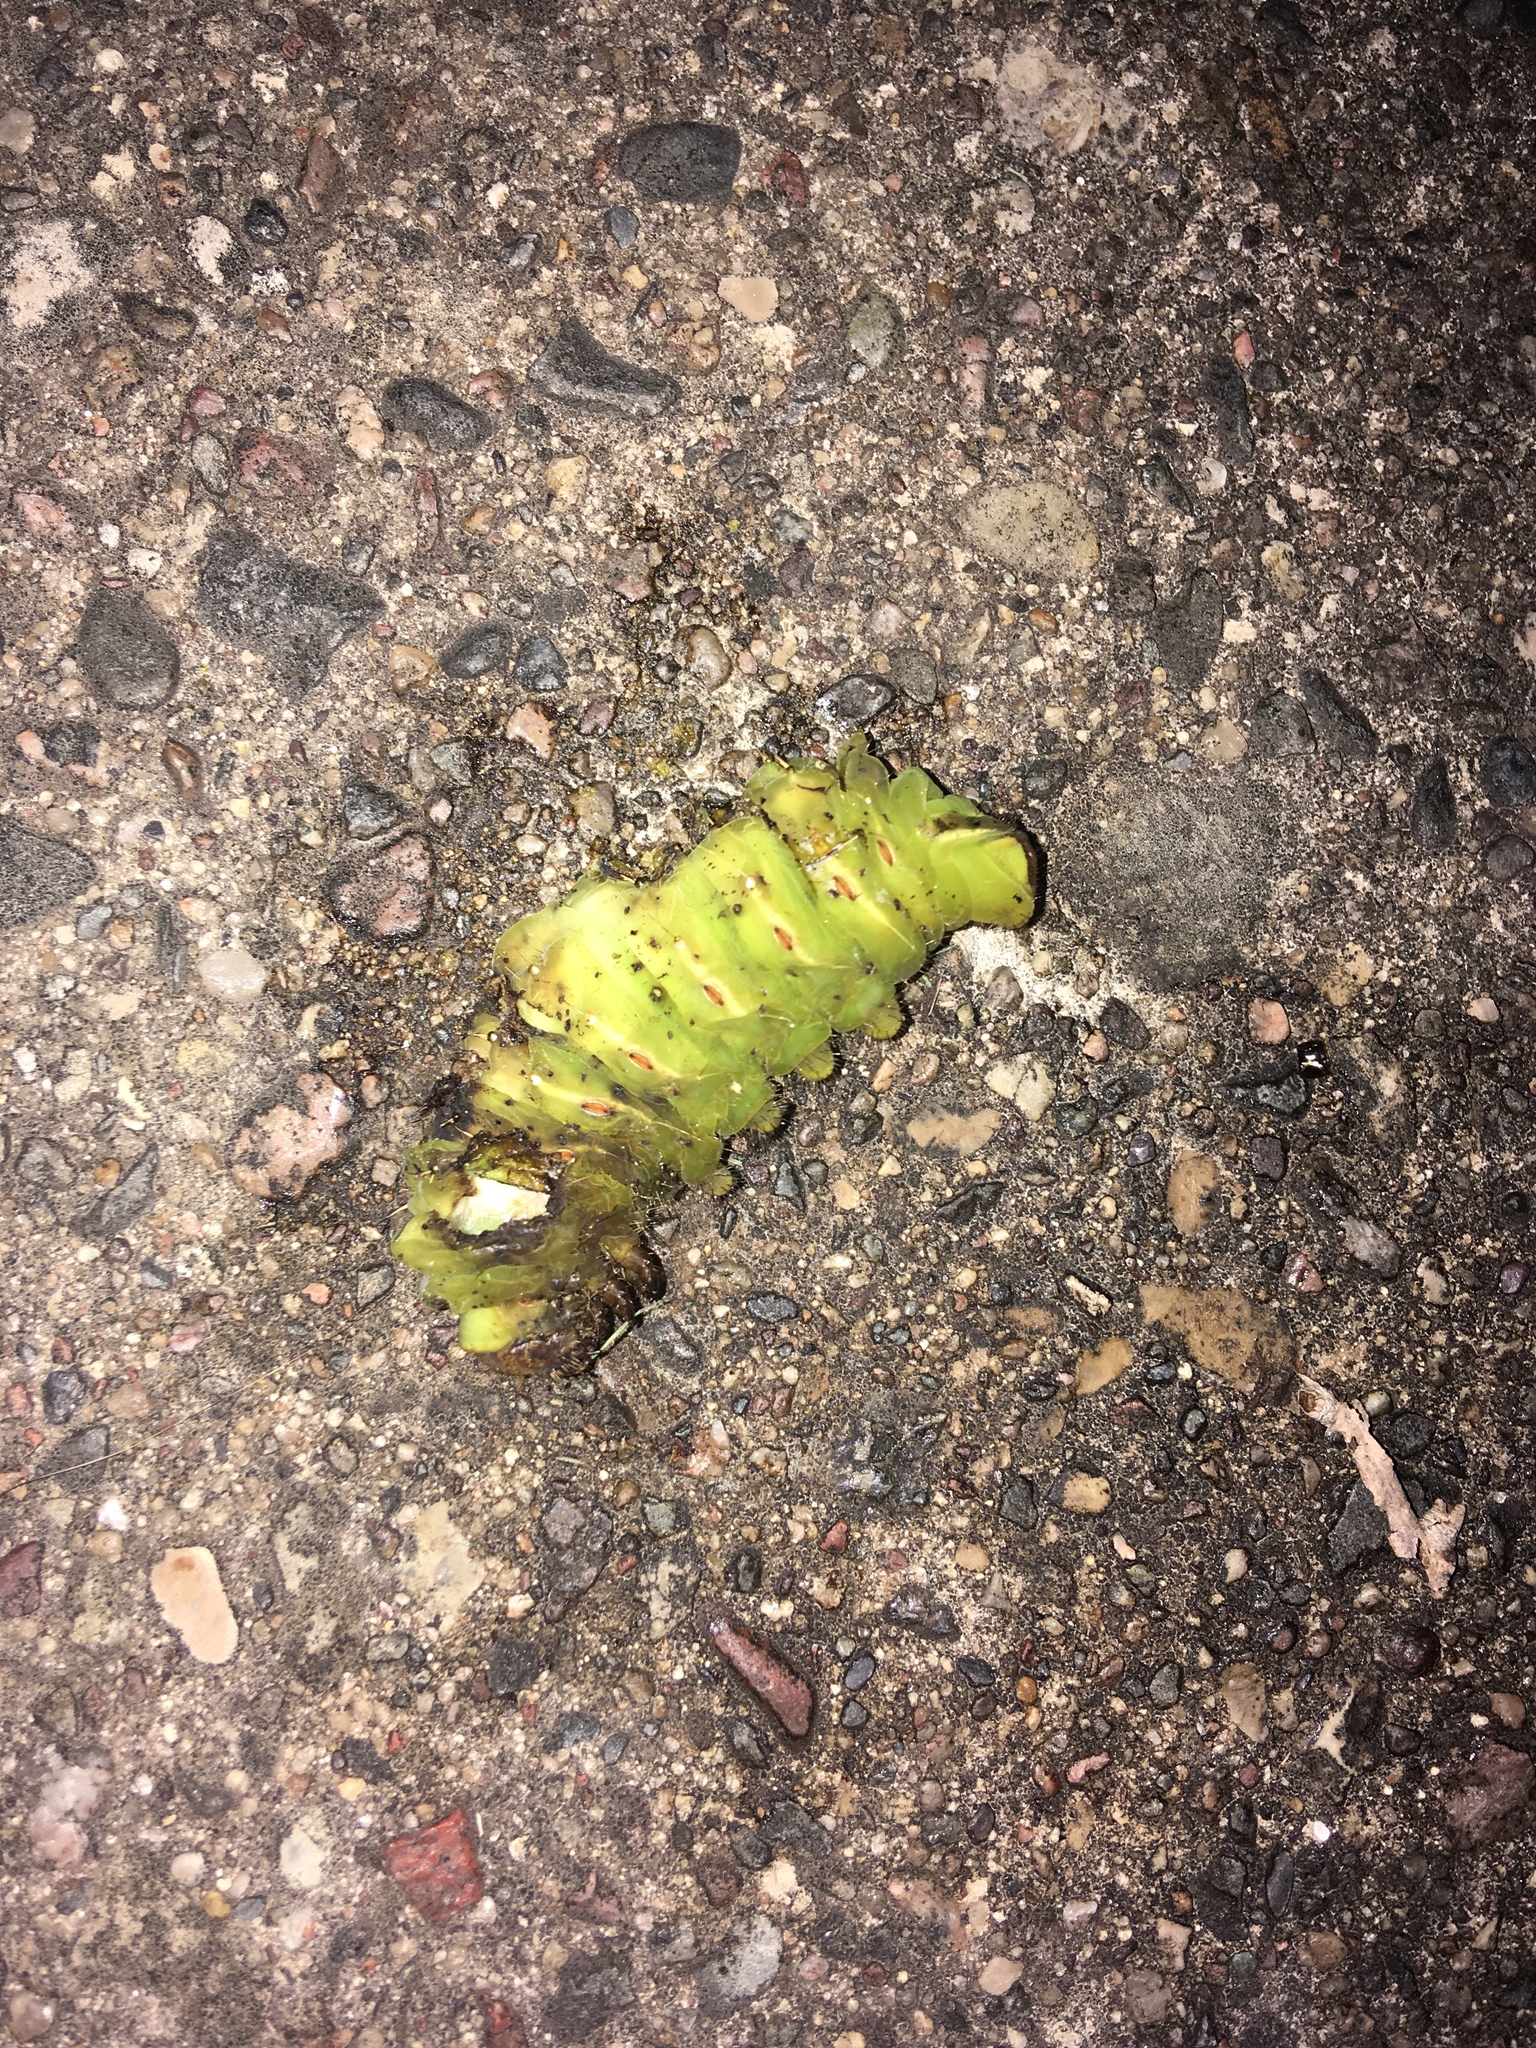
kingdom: Animalia
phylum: Arthropoda
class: Insecta
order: Lepidoptera
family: Saturniidae
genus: Antheraea
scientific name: Antheraea polyphemus
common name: Polyphemus moth
